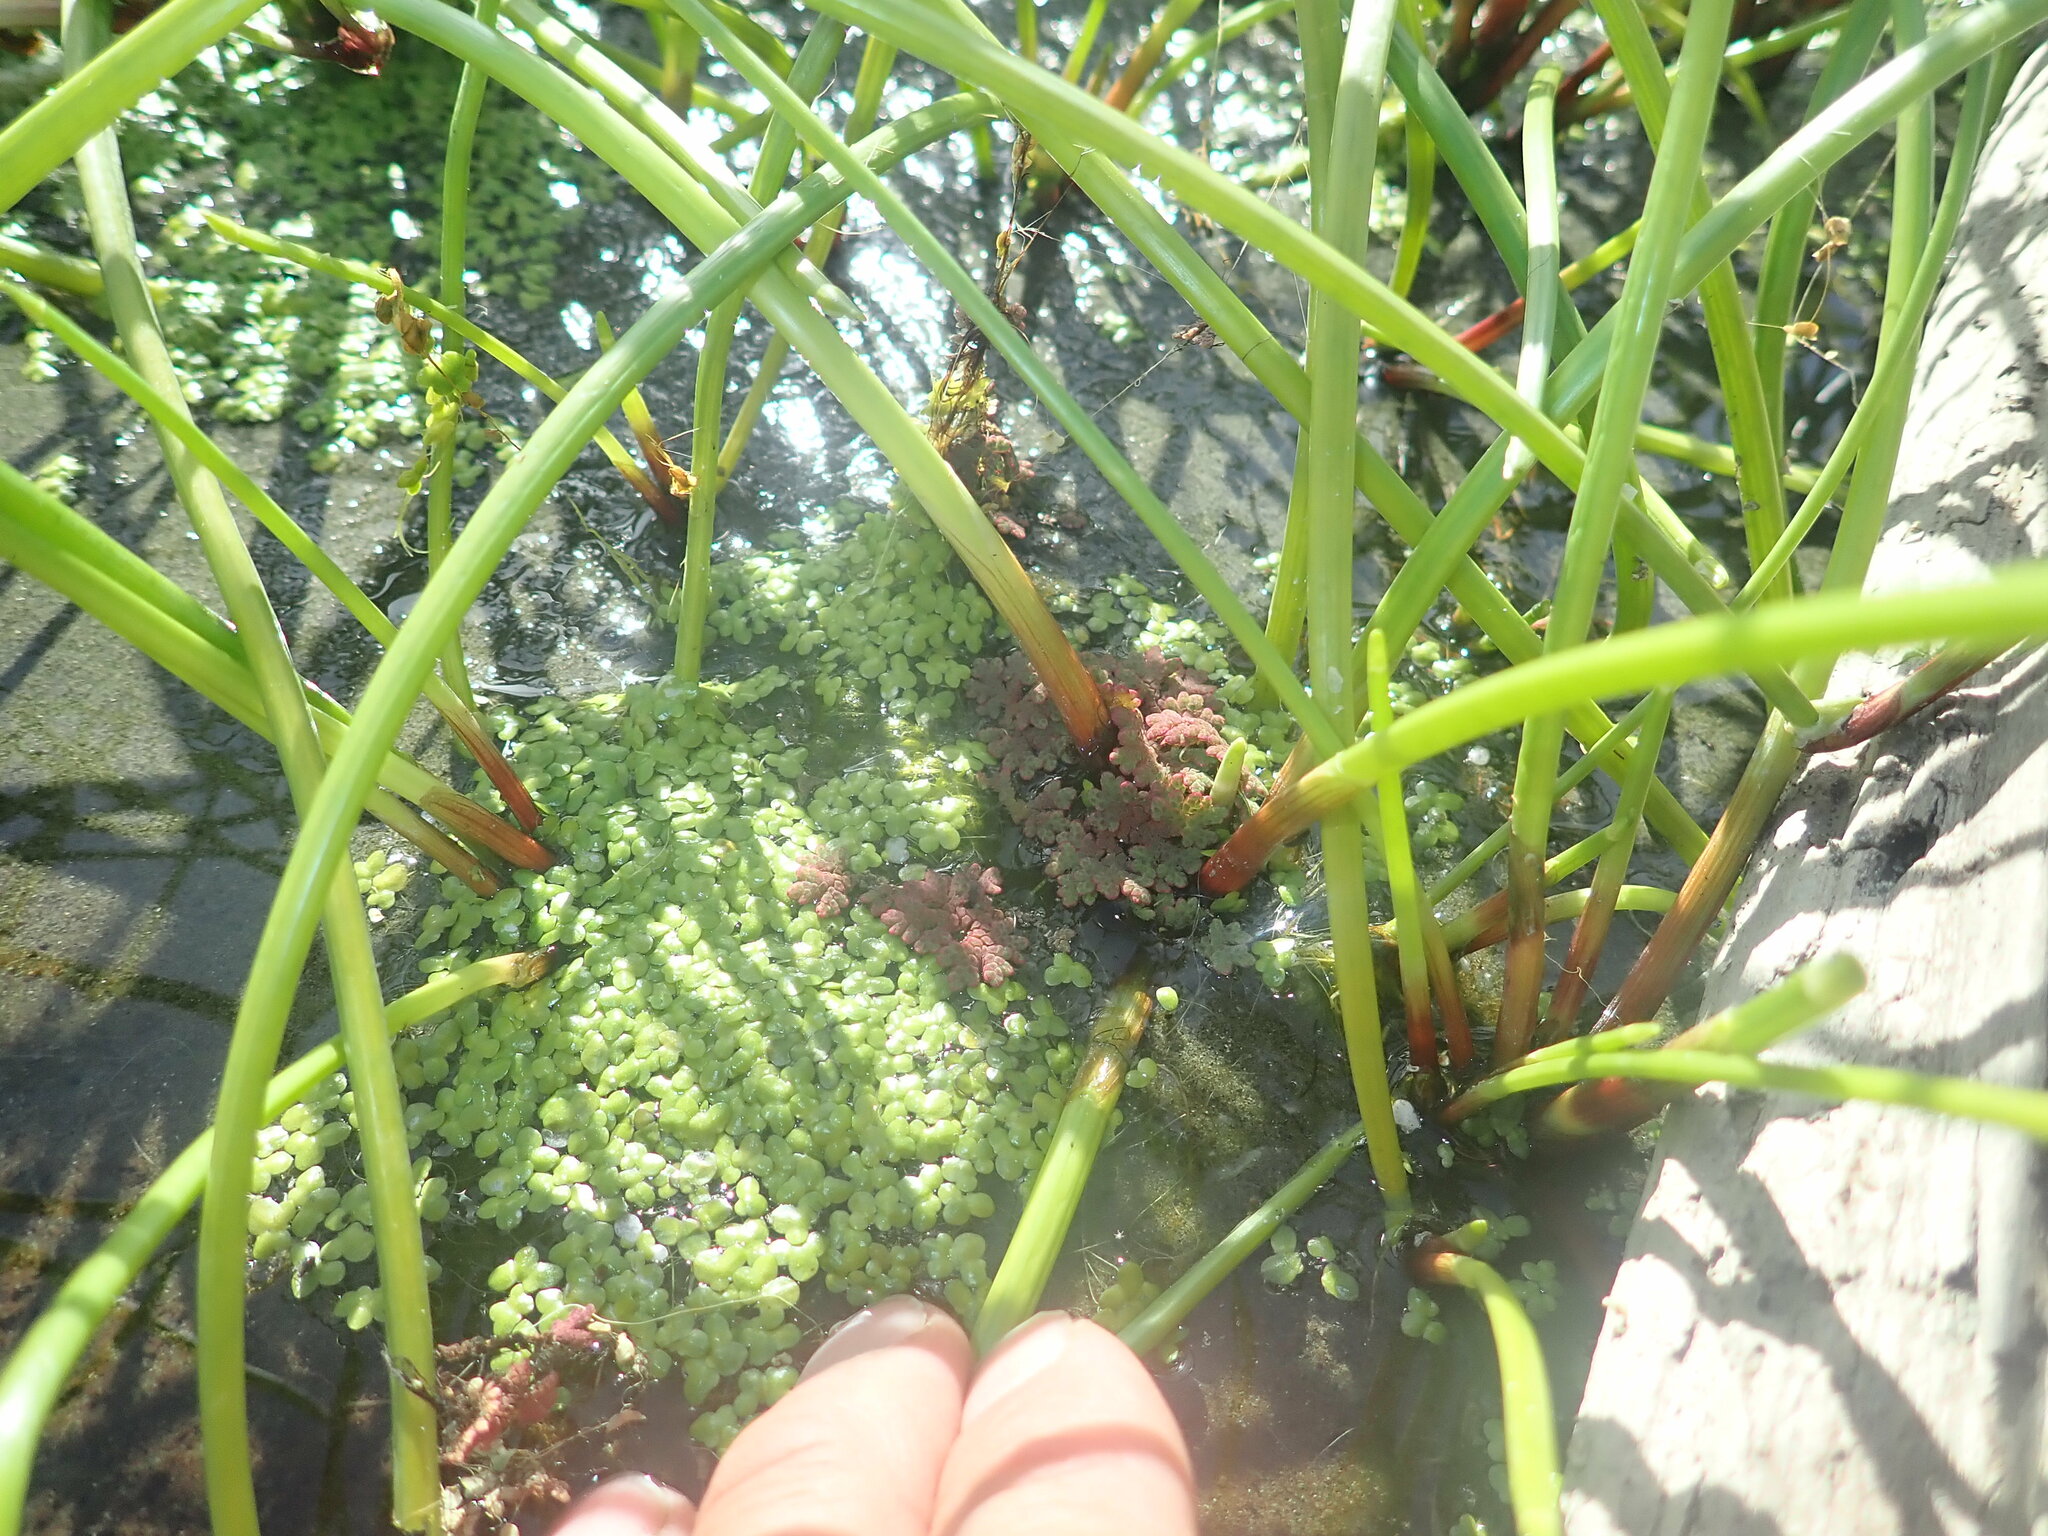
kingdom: Plantae
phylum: Tracheophyta
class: Polypodiopsida
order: Salviniales
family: Salviniaceae
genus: Azolla
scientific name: Azolla rubra
